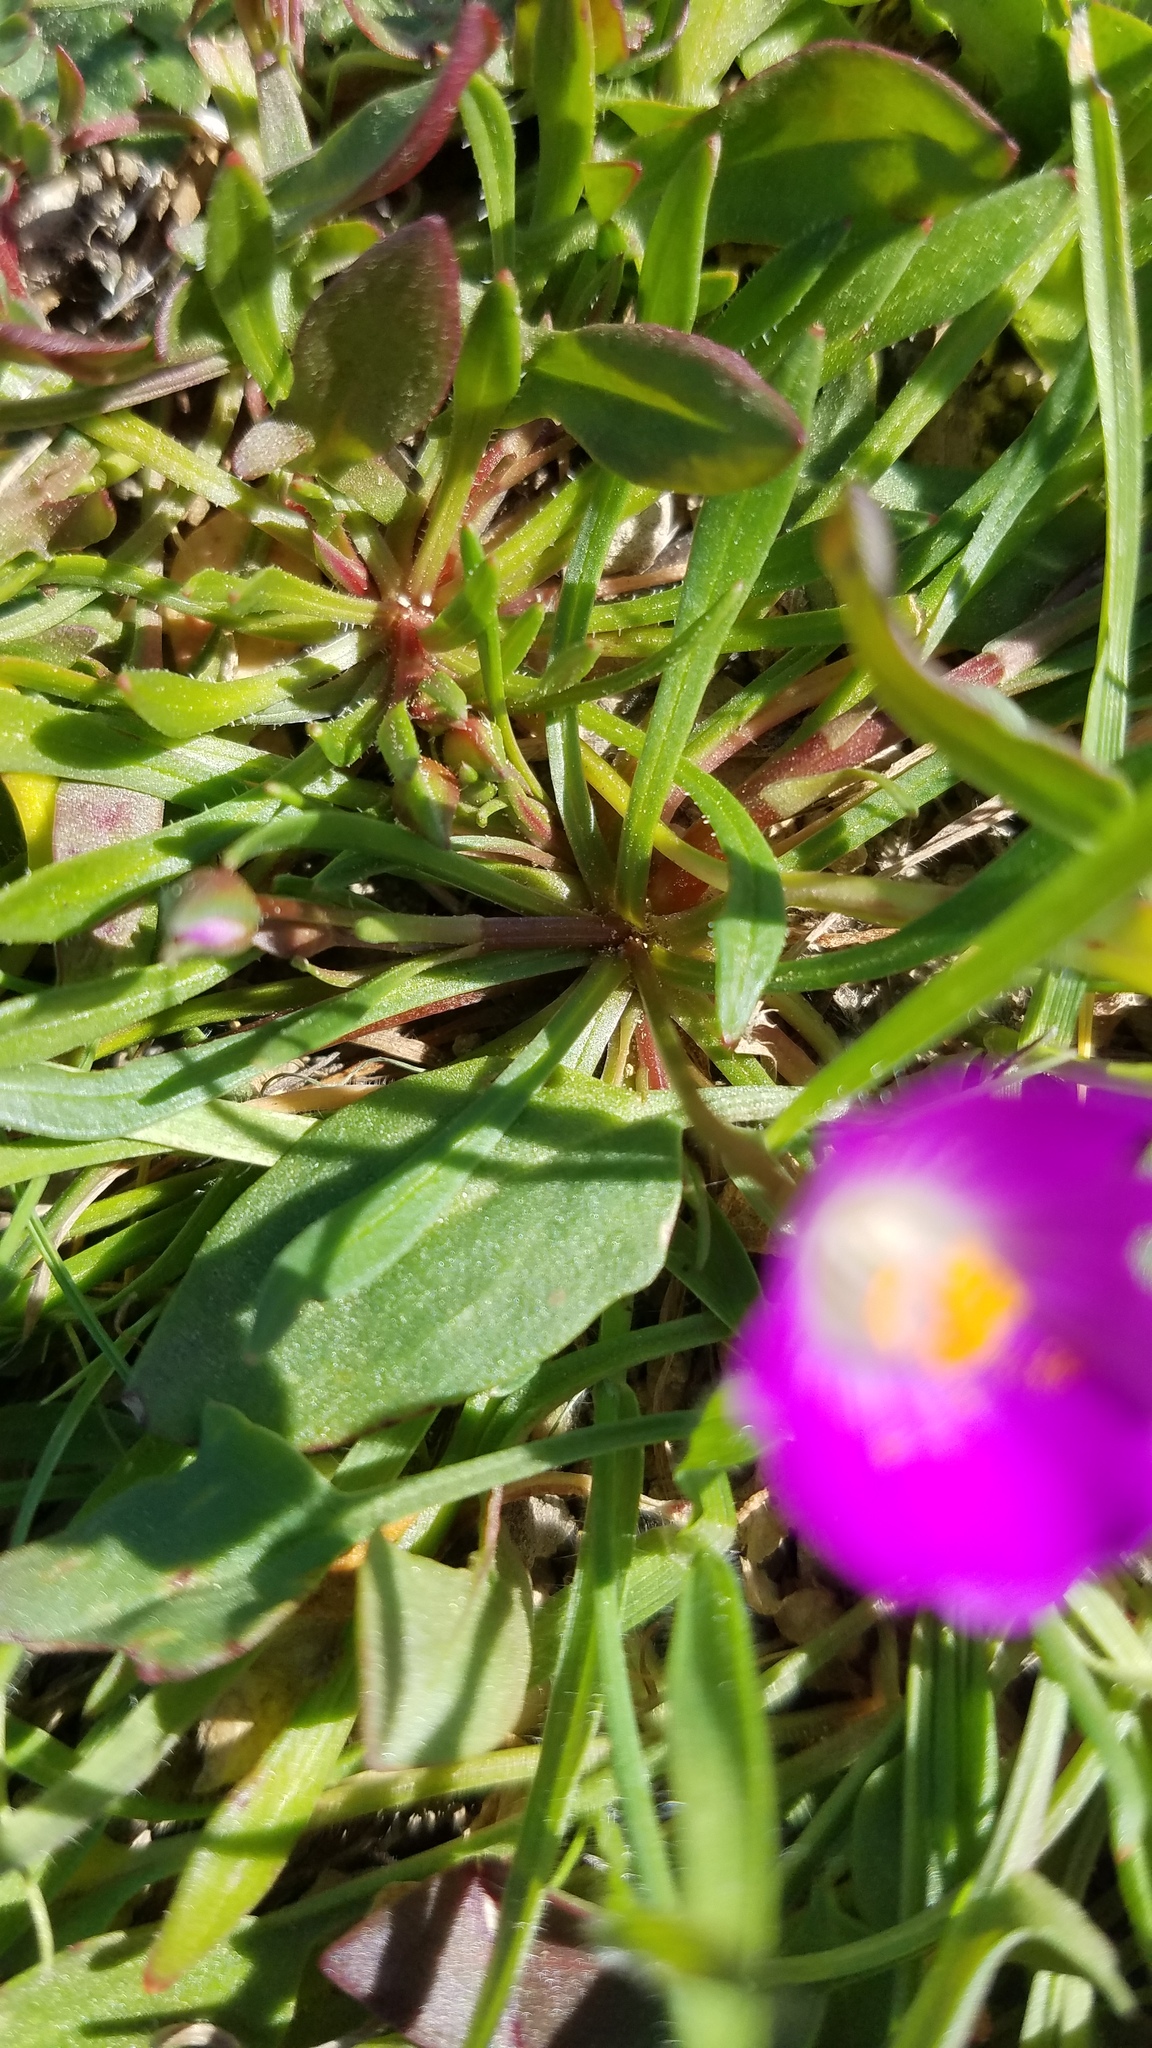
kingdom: Plantae
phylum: Tracheophyta
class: Magnoliopsida
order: Caryophyllales
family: Montiaceae
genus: Calandrinia
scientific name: Calandrinia menziesii
